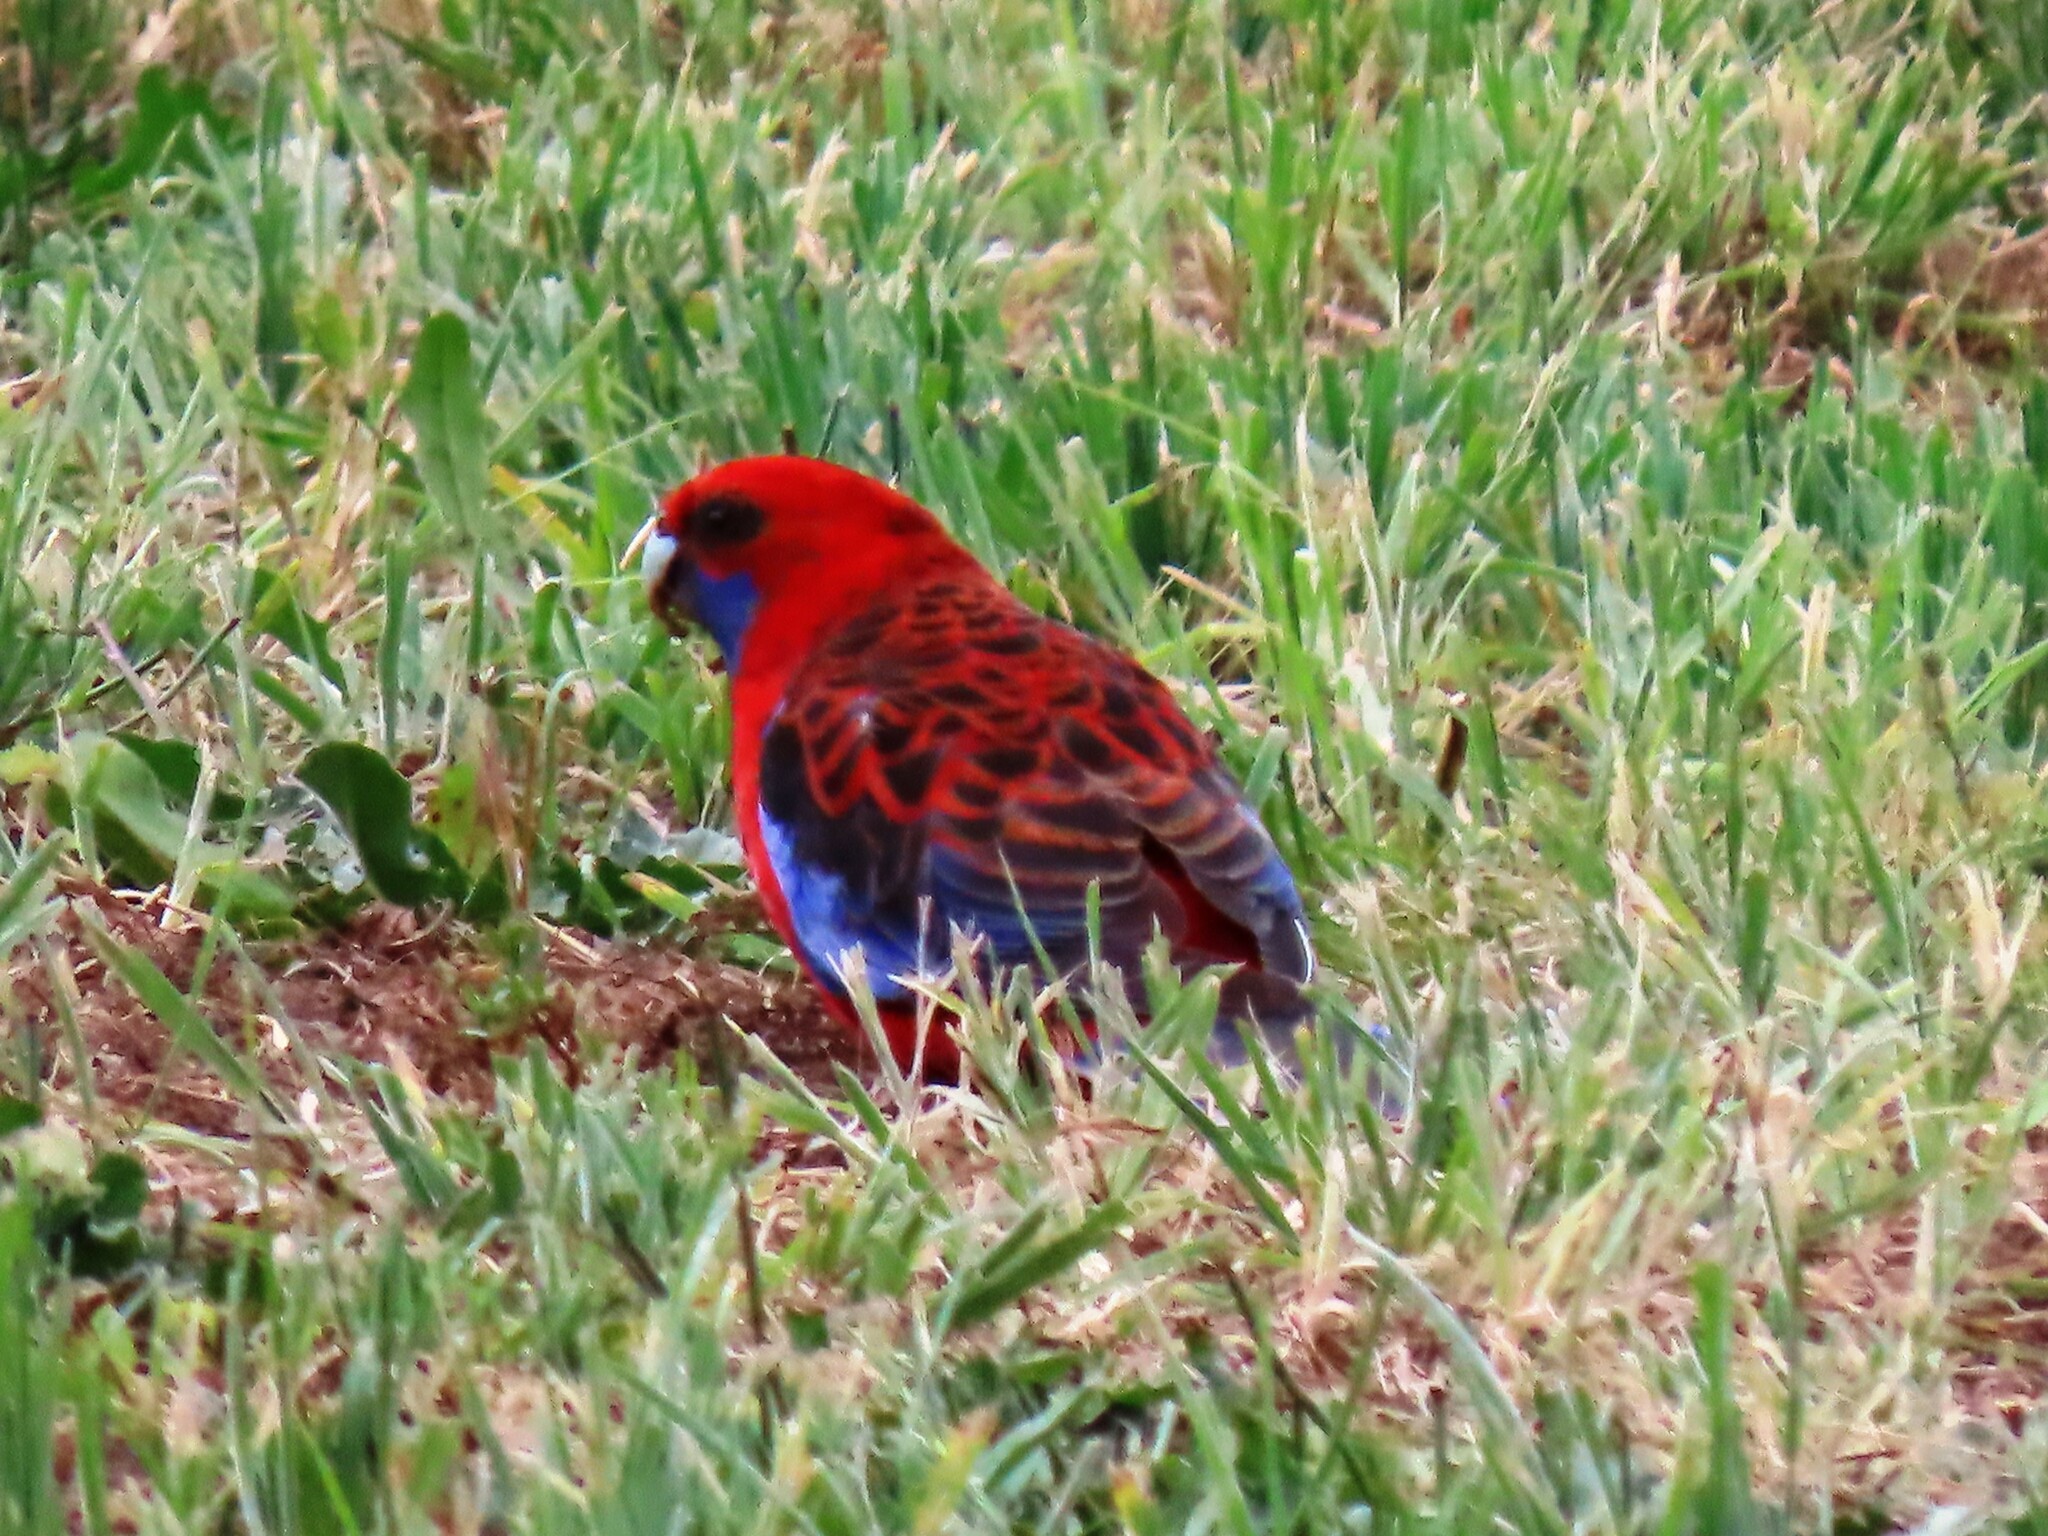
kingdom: Animalia
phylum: Chordata
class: Aves
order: Psittaciformes
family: Psittacidae
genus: Platycercus
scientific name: Platycercus elegans
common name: Crimson rosella
